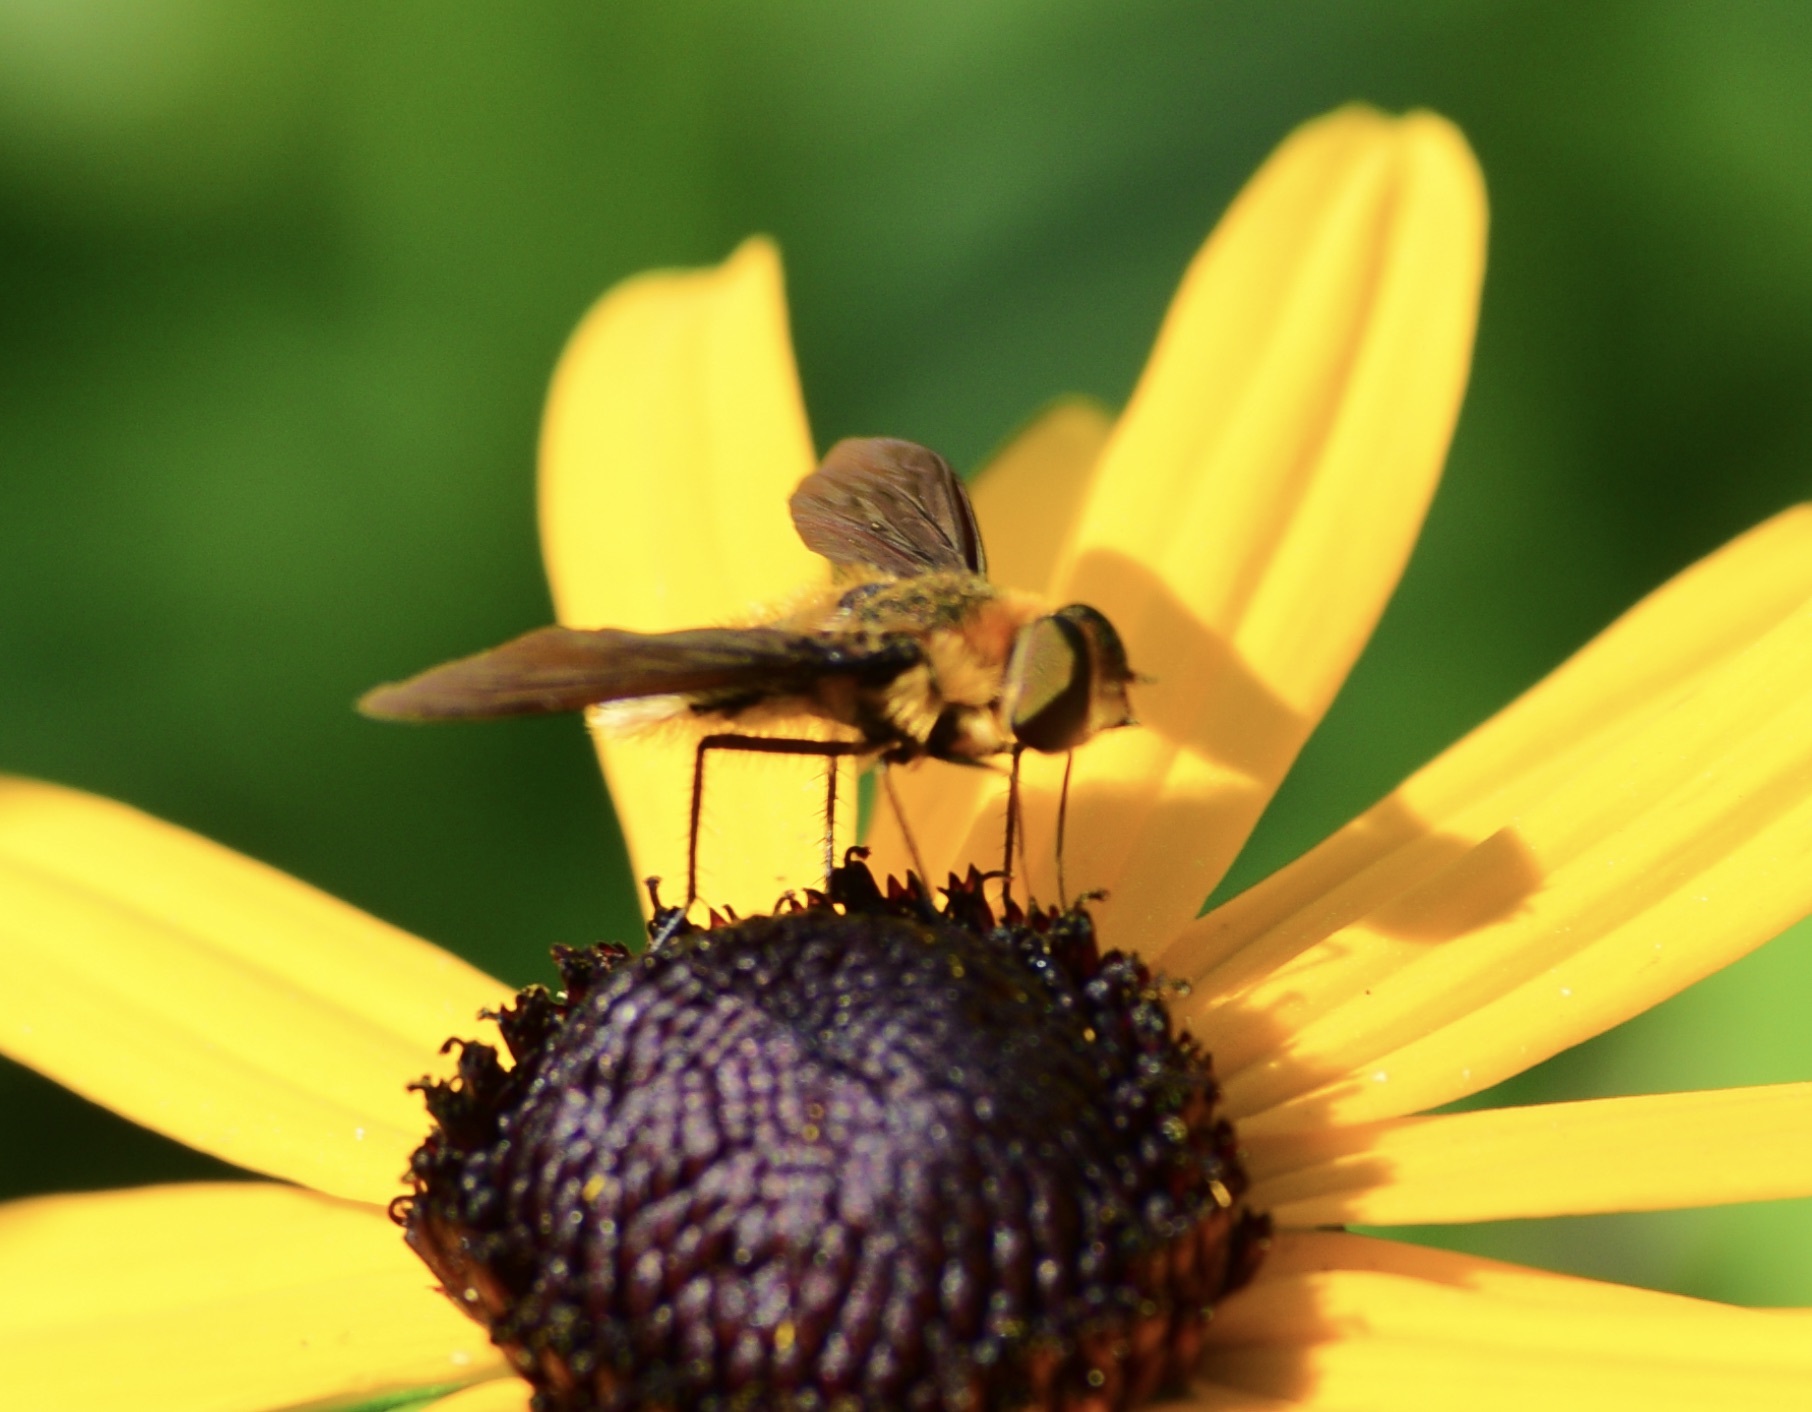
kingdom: Animalia
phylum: Arthropoda
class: Insecta
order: Diptera
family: Bombyliidae
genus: Poecilanthrax
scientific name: Poecilanthrax tegminipennis
